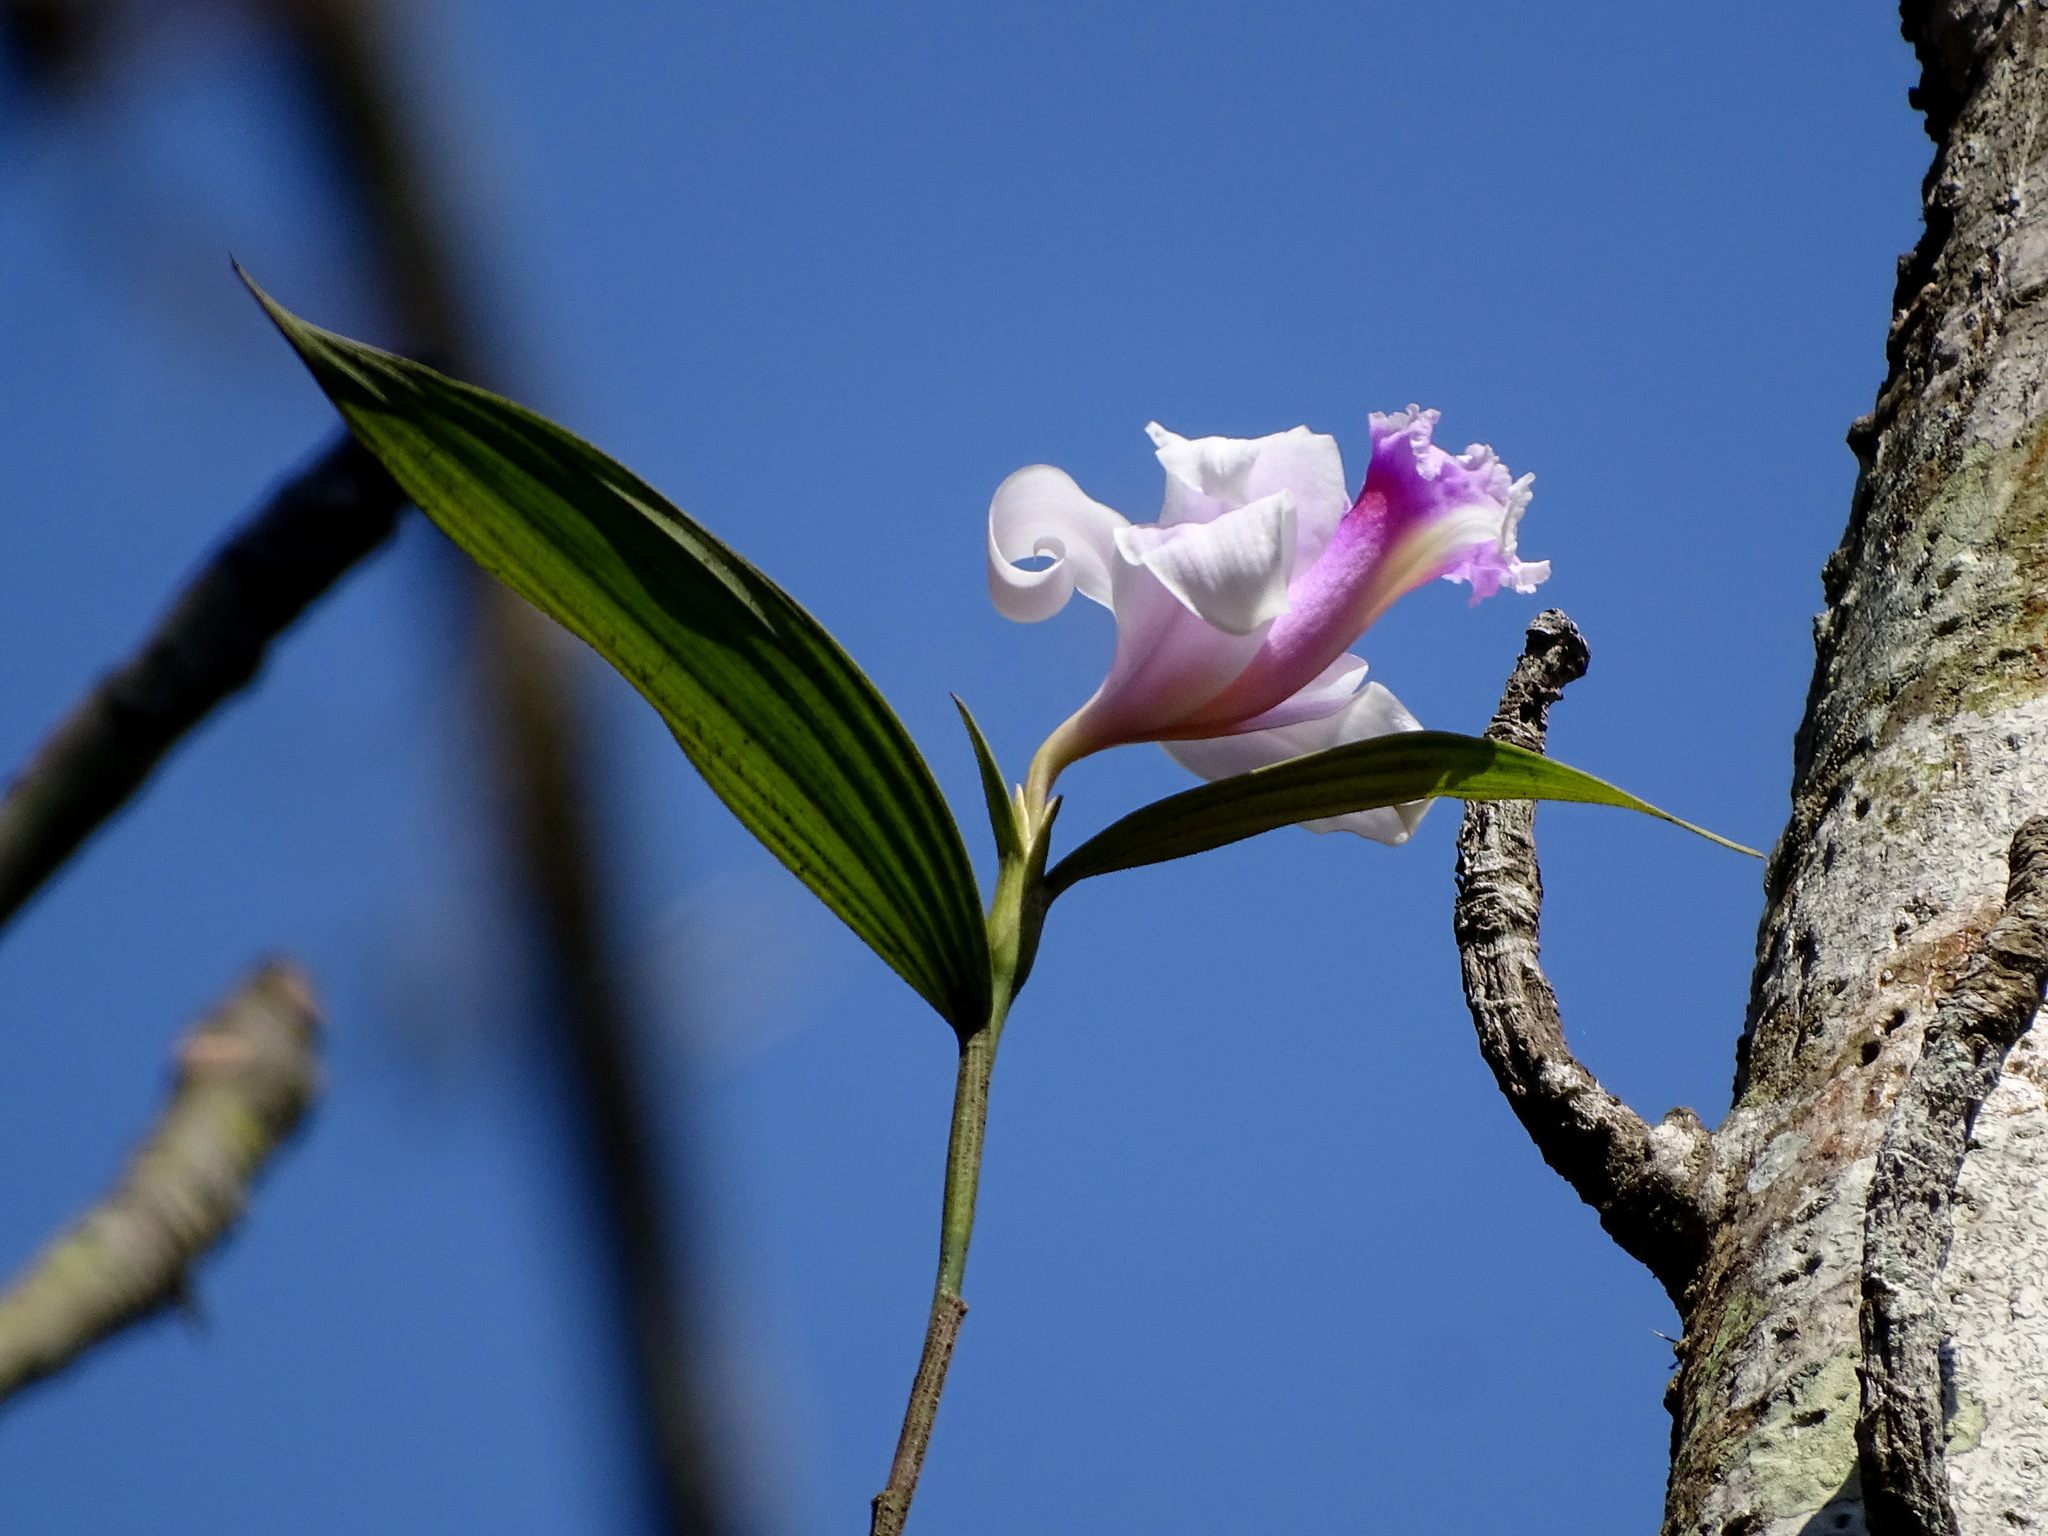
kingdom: Plantae
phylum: Tracheophyta
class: Liliopsida
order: Asparagales
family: Orchidaceae
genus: Sobralia
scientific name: Sobralia decora
